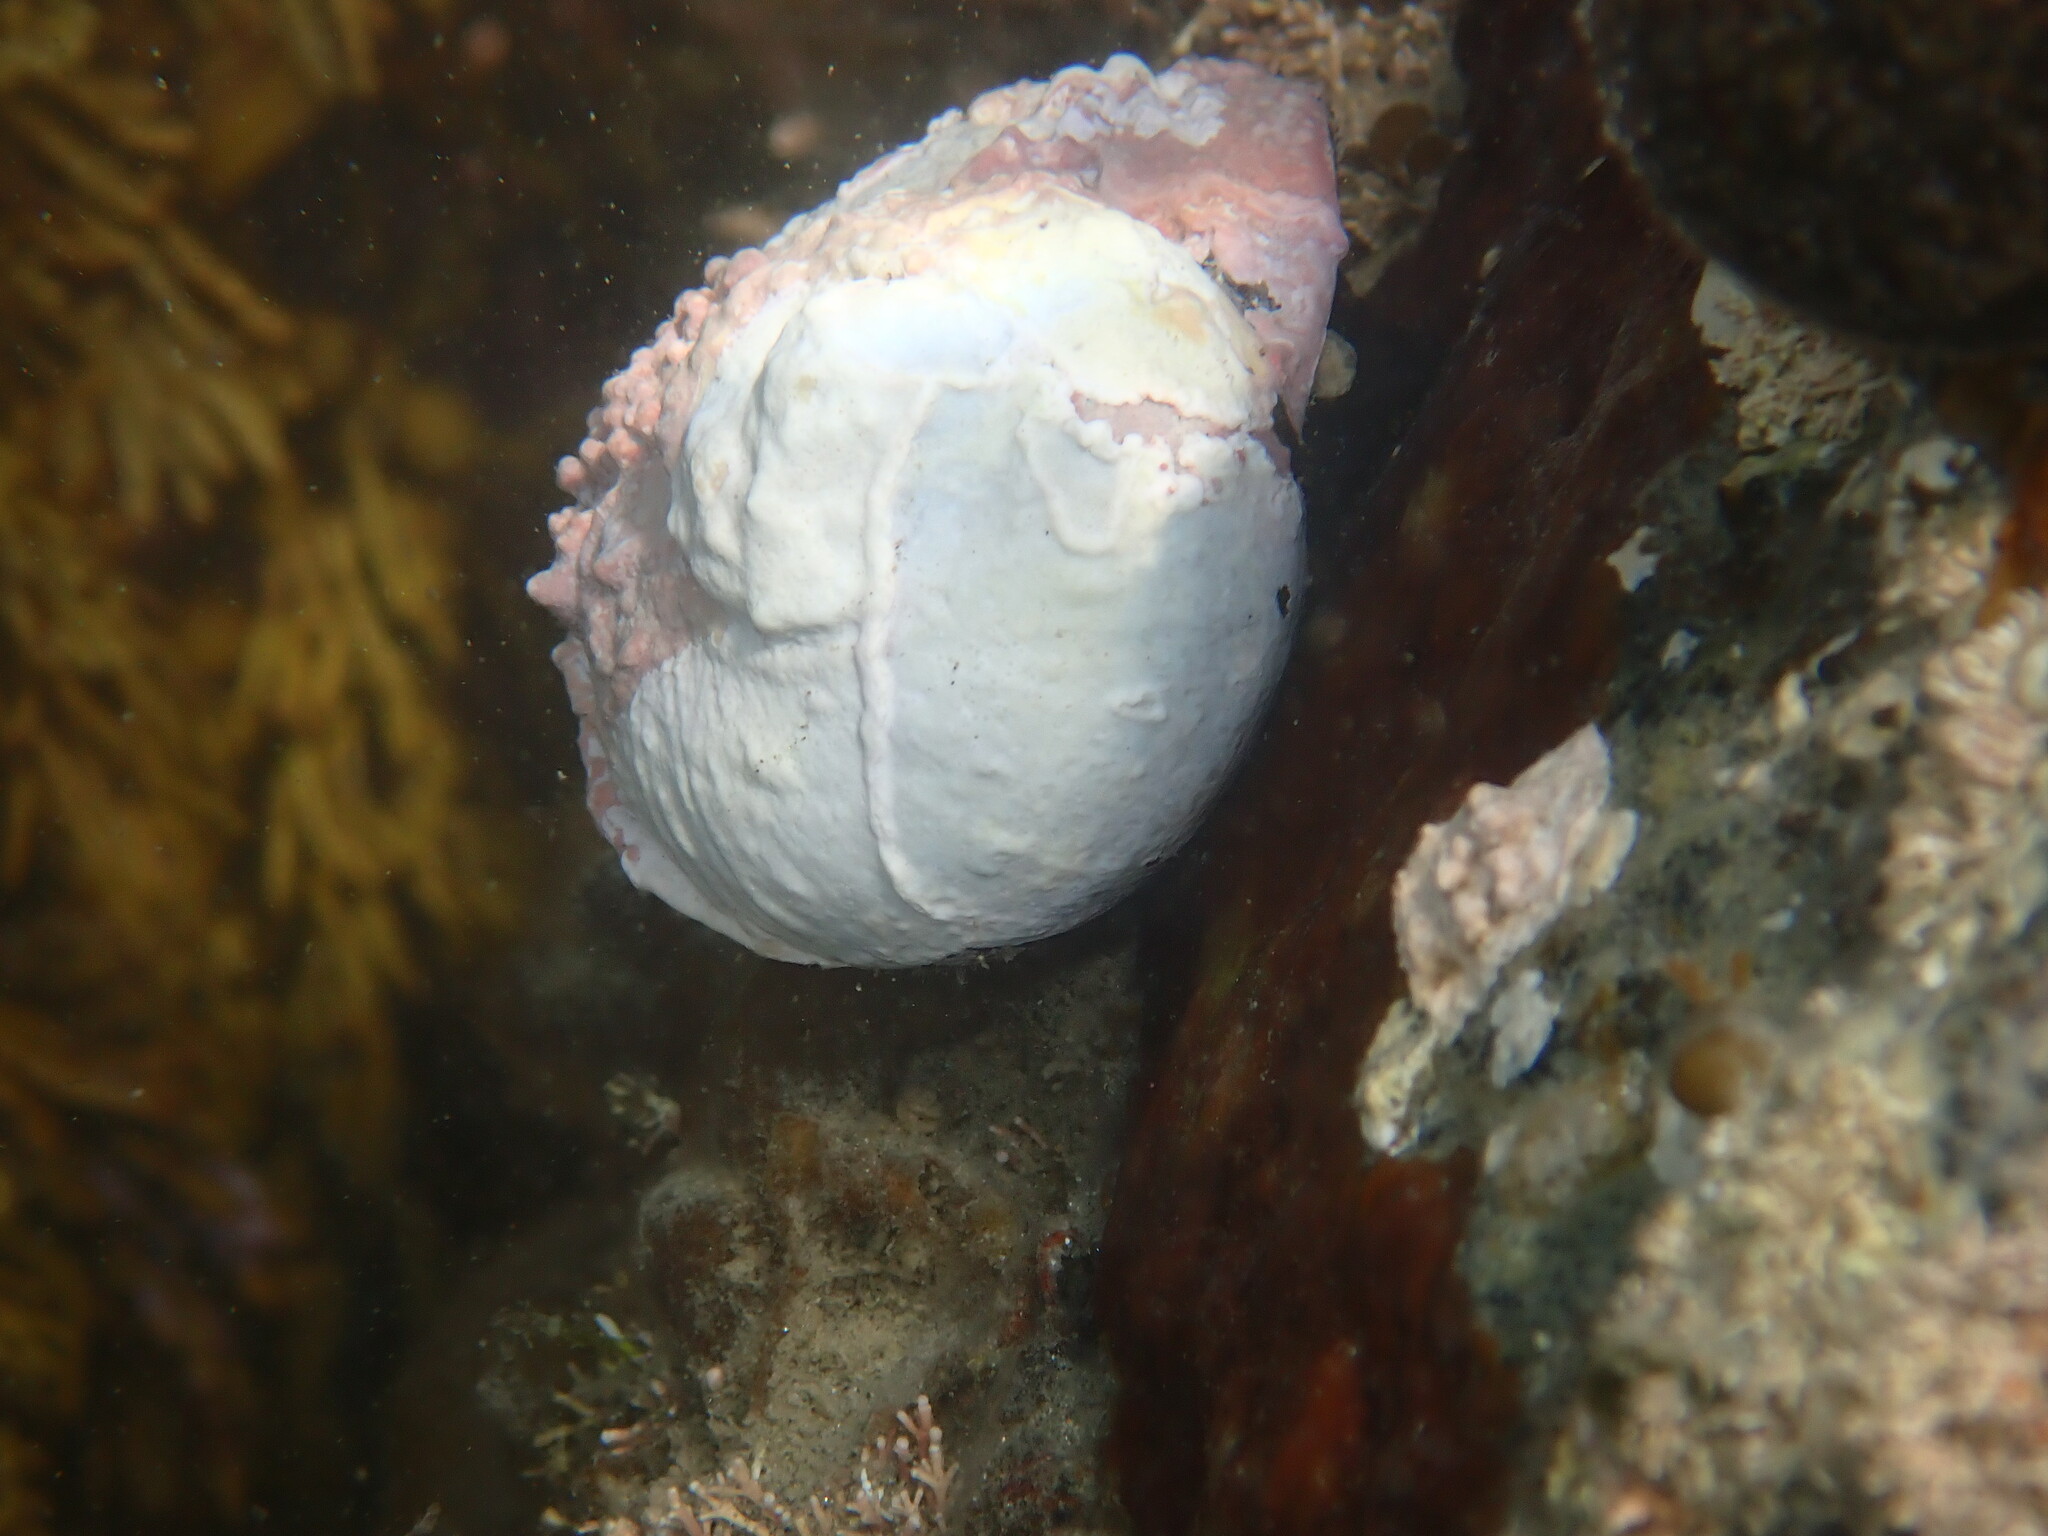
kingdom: Animalia
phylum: Mollusca
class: Gastropoda
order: Trochida
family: Turbinidae
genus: Lunella
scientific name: Lunella smaragda
